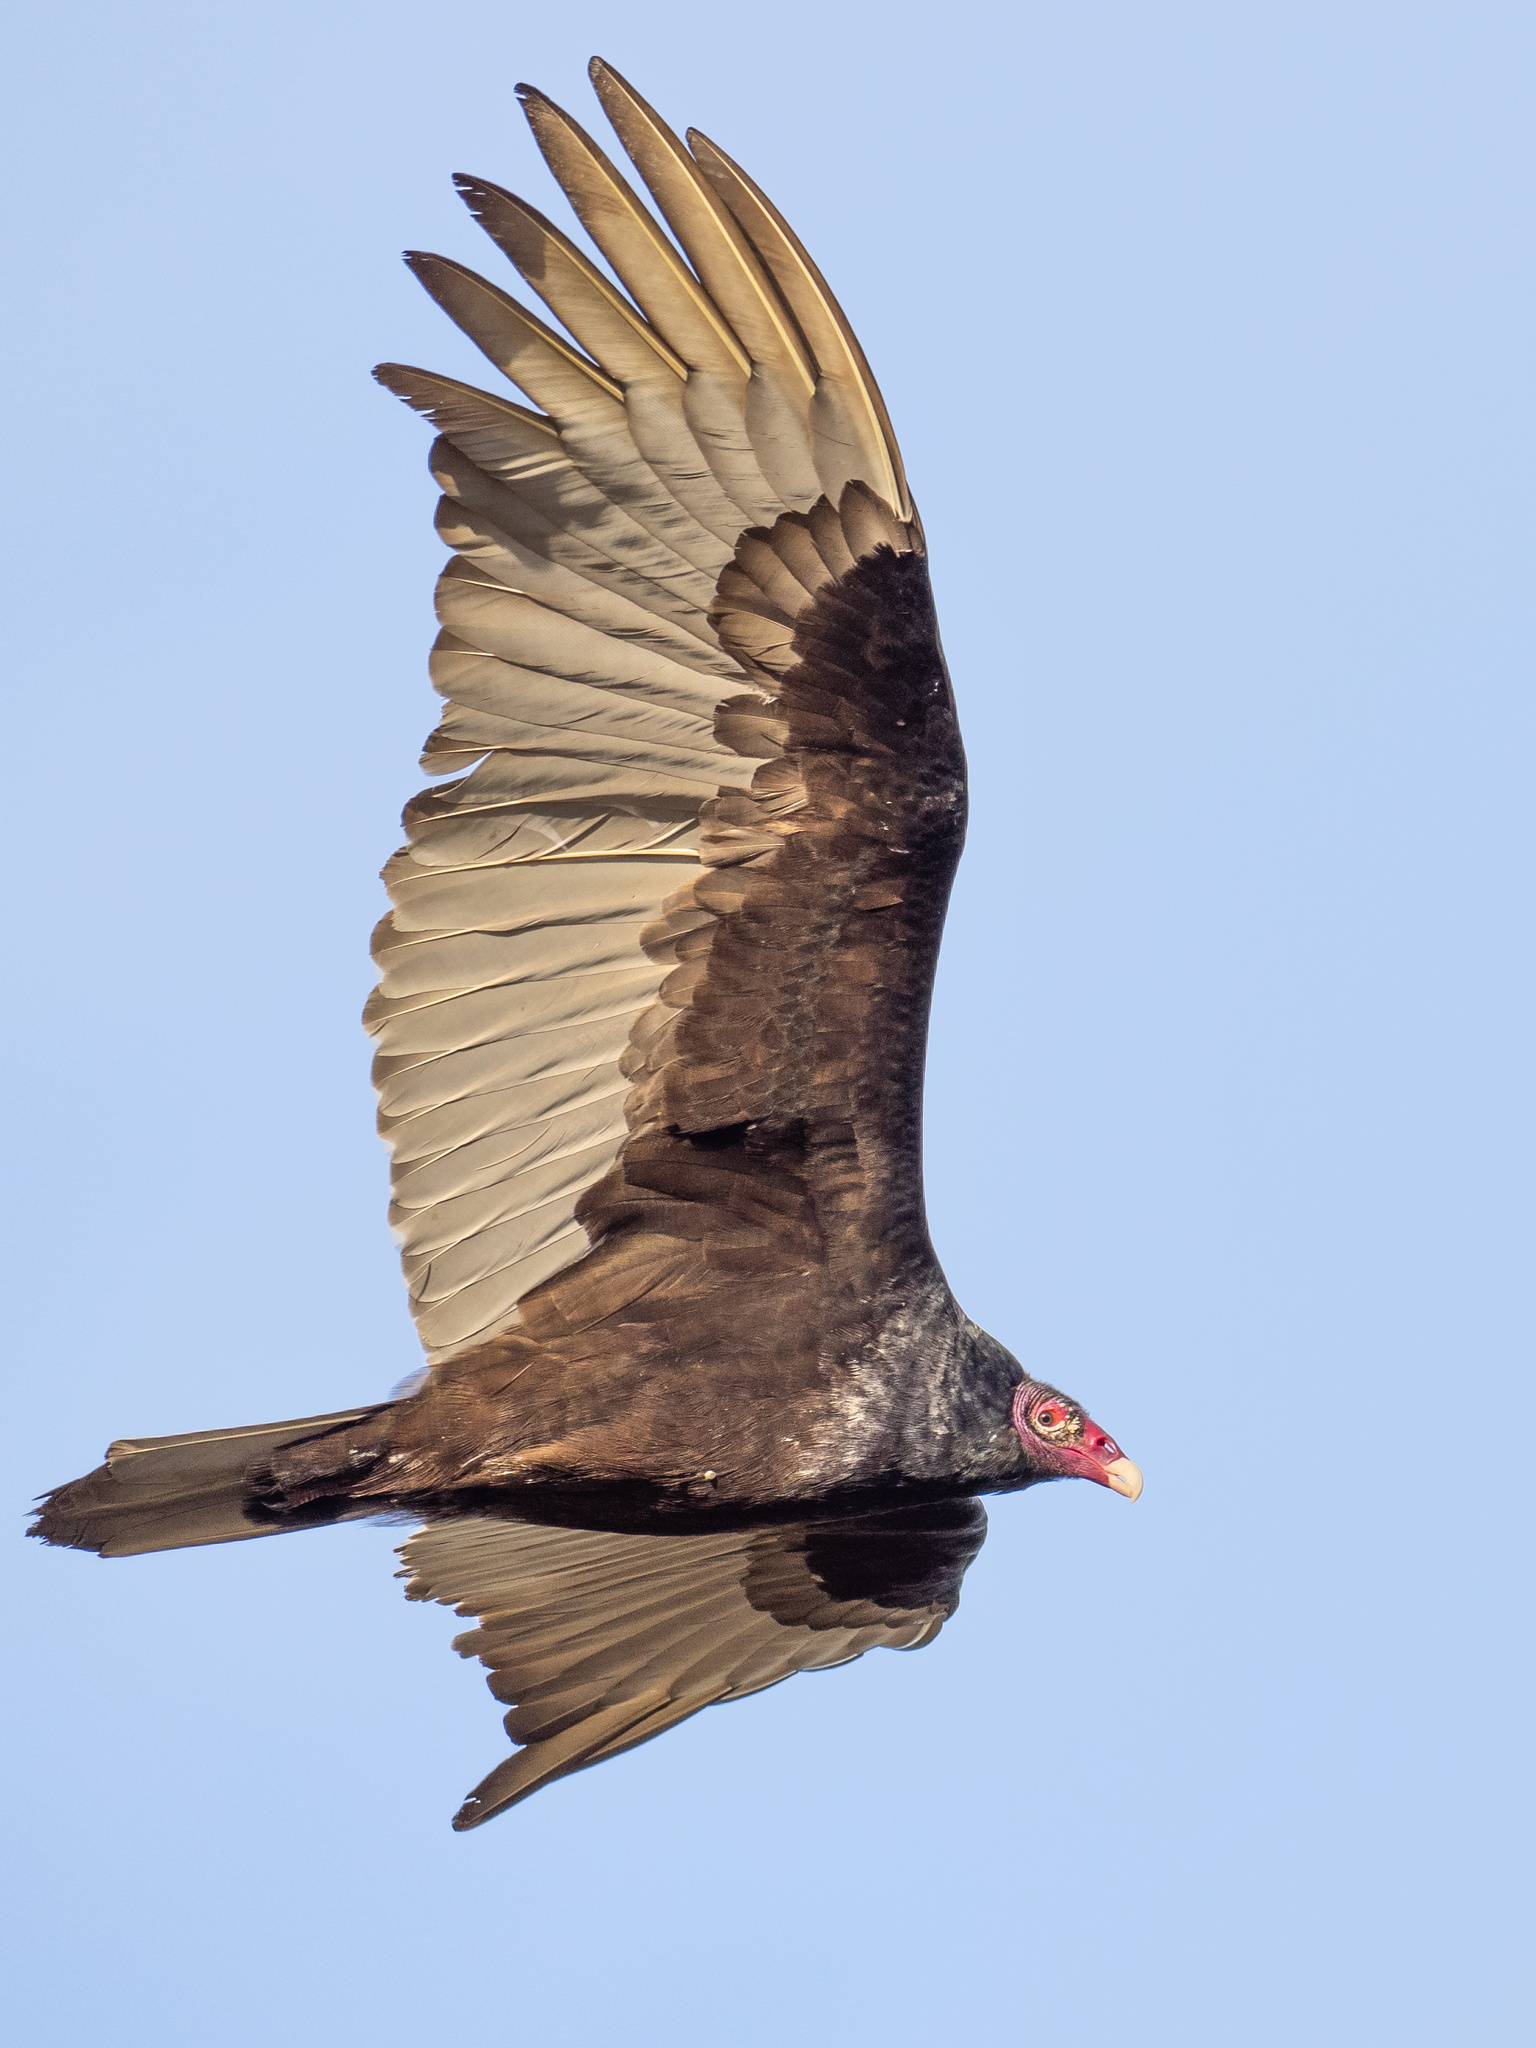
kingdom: Animalia
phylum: Chordata
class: Aves
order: Accipitriformes
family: Cathartidae
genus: Cathartes
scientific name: Cathartes aura
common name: Turkey vulture
